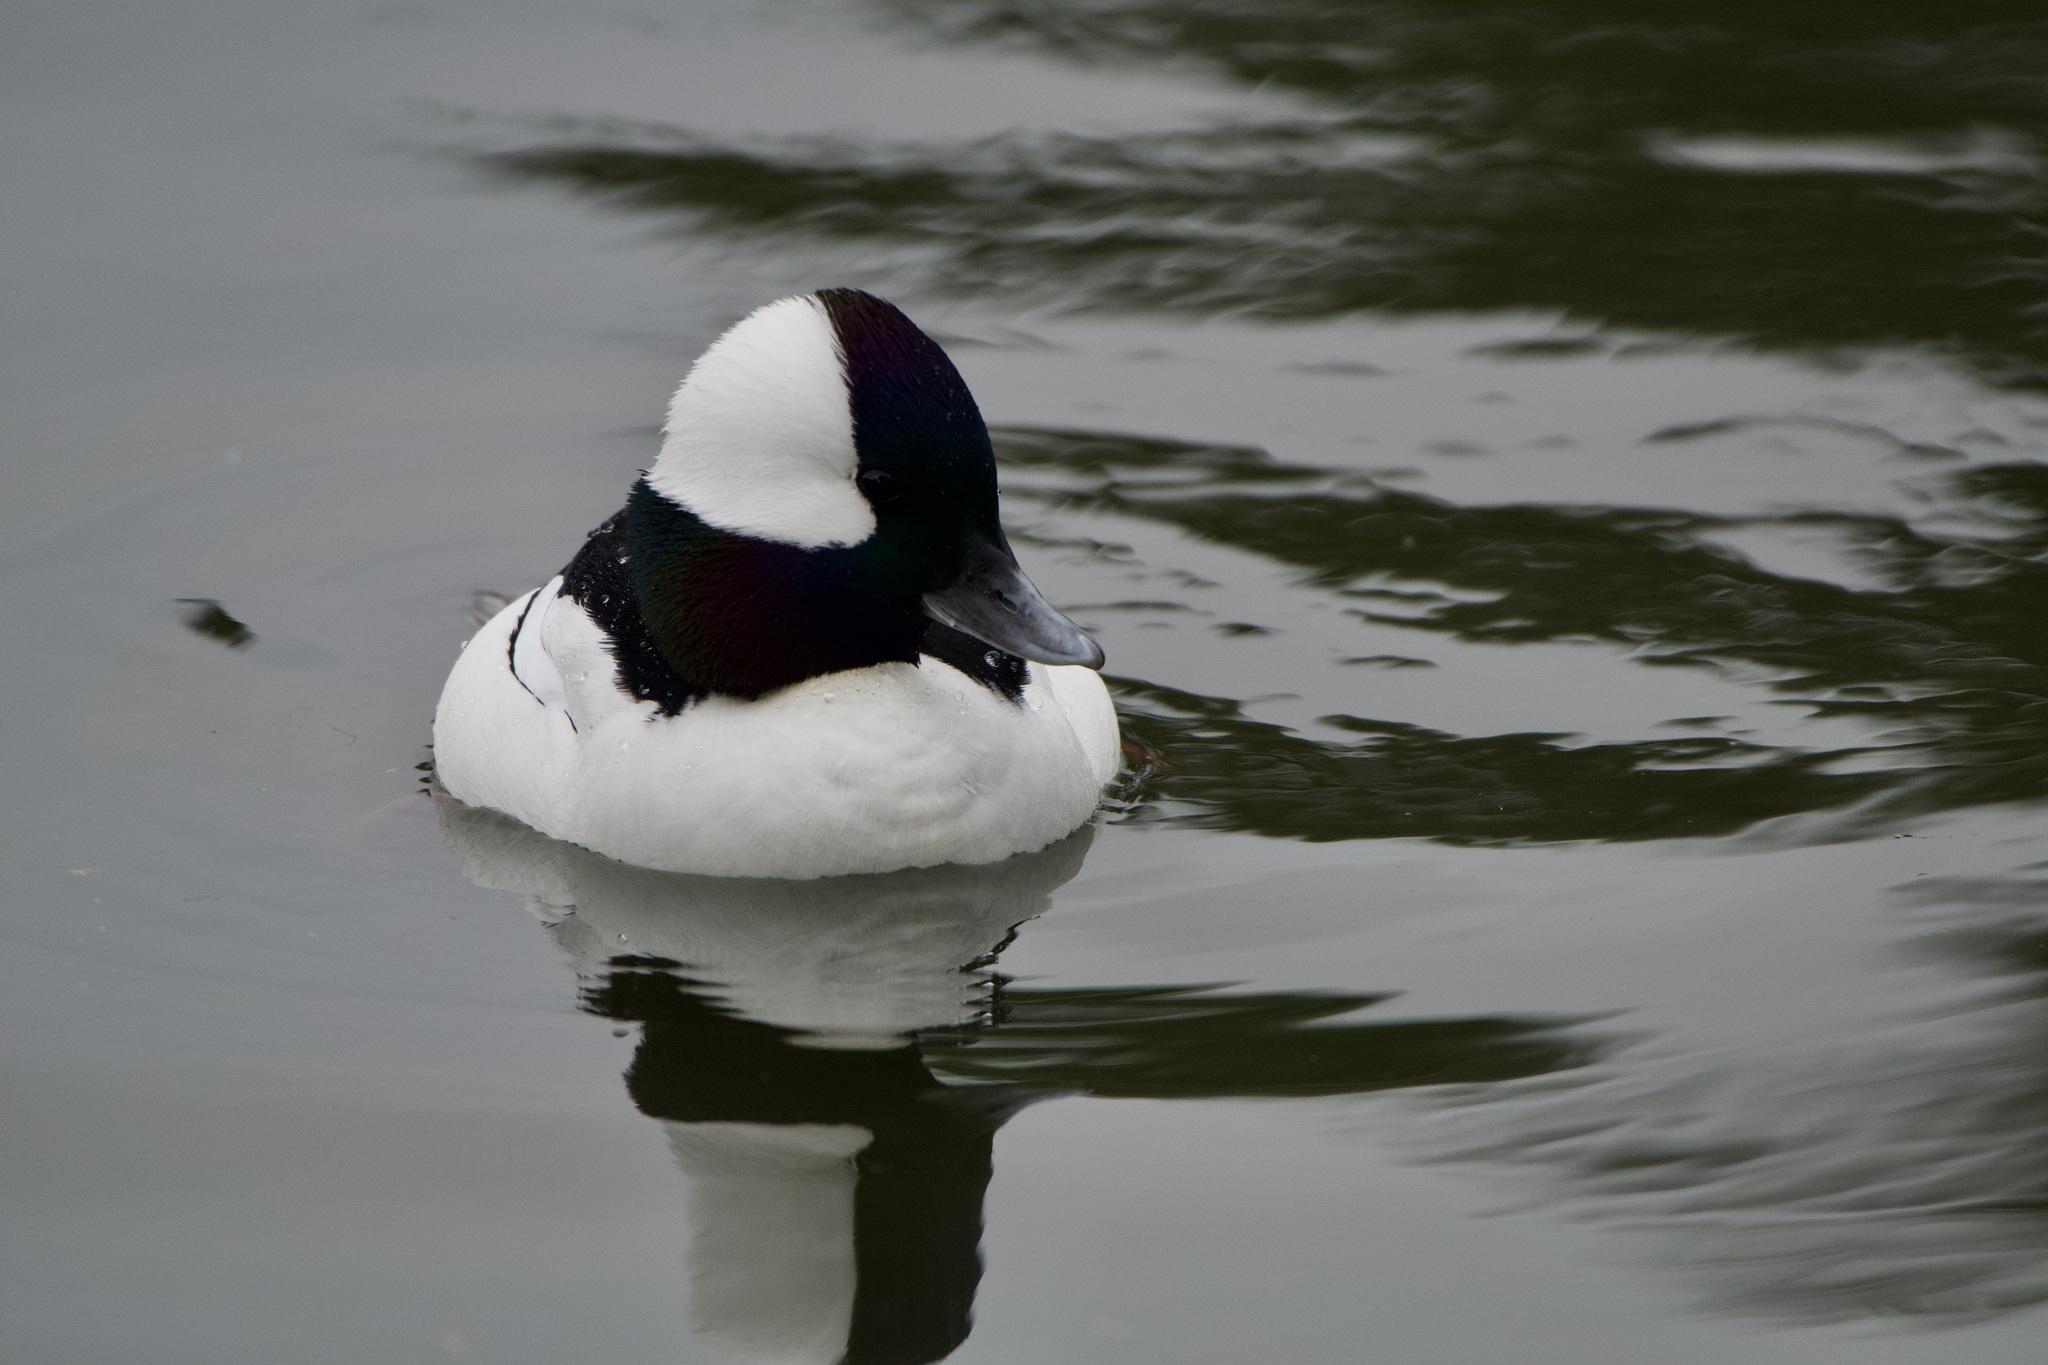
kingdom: Animalia
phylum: Chordata
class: Aves
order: Anseriformes
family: Anatidae
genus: Bucephala
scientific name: Bucephala albeola
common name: Bufflehead
